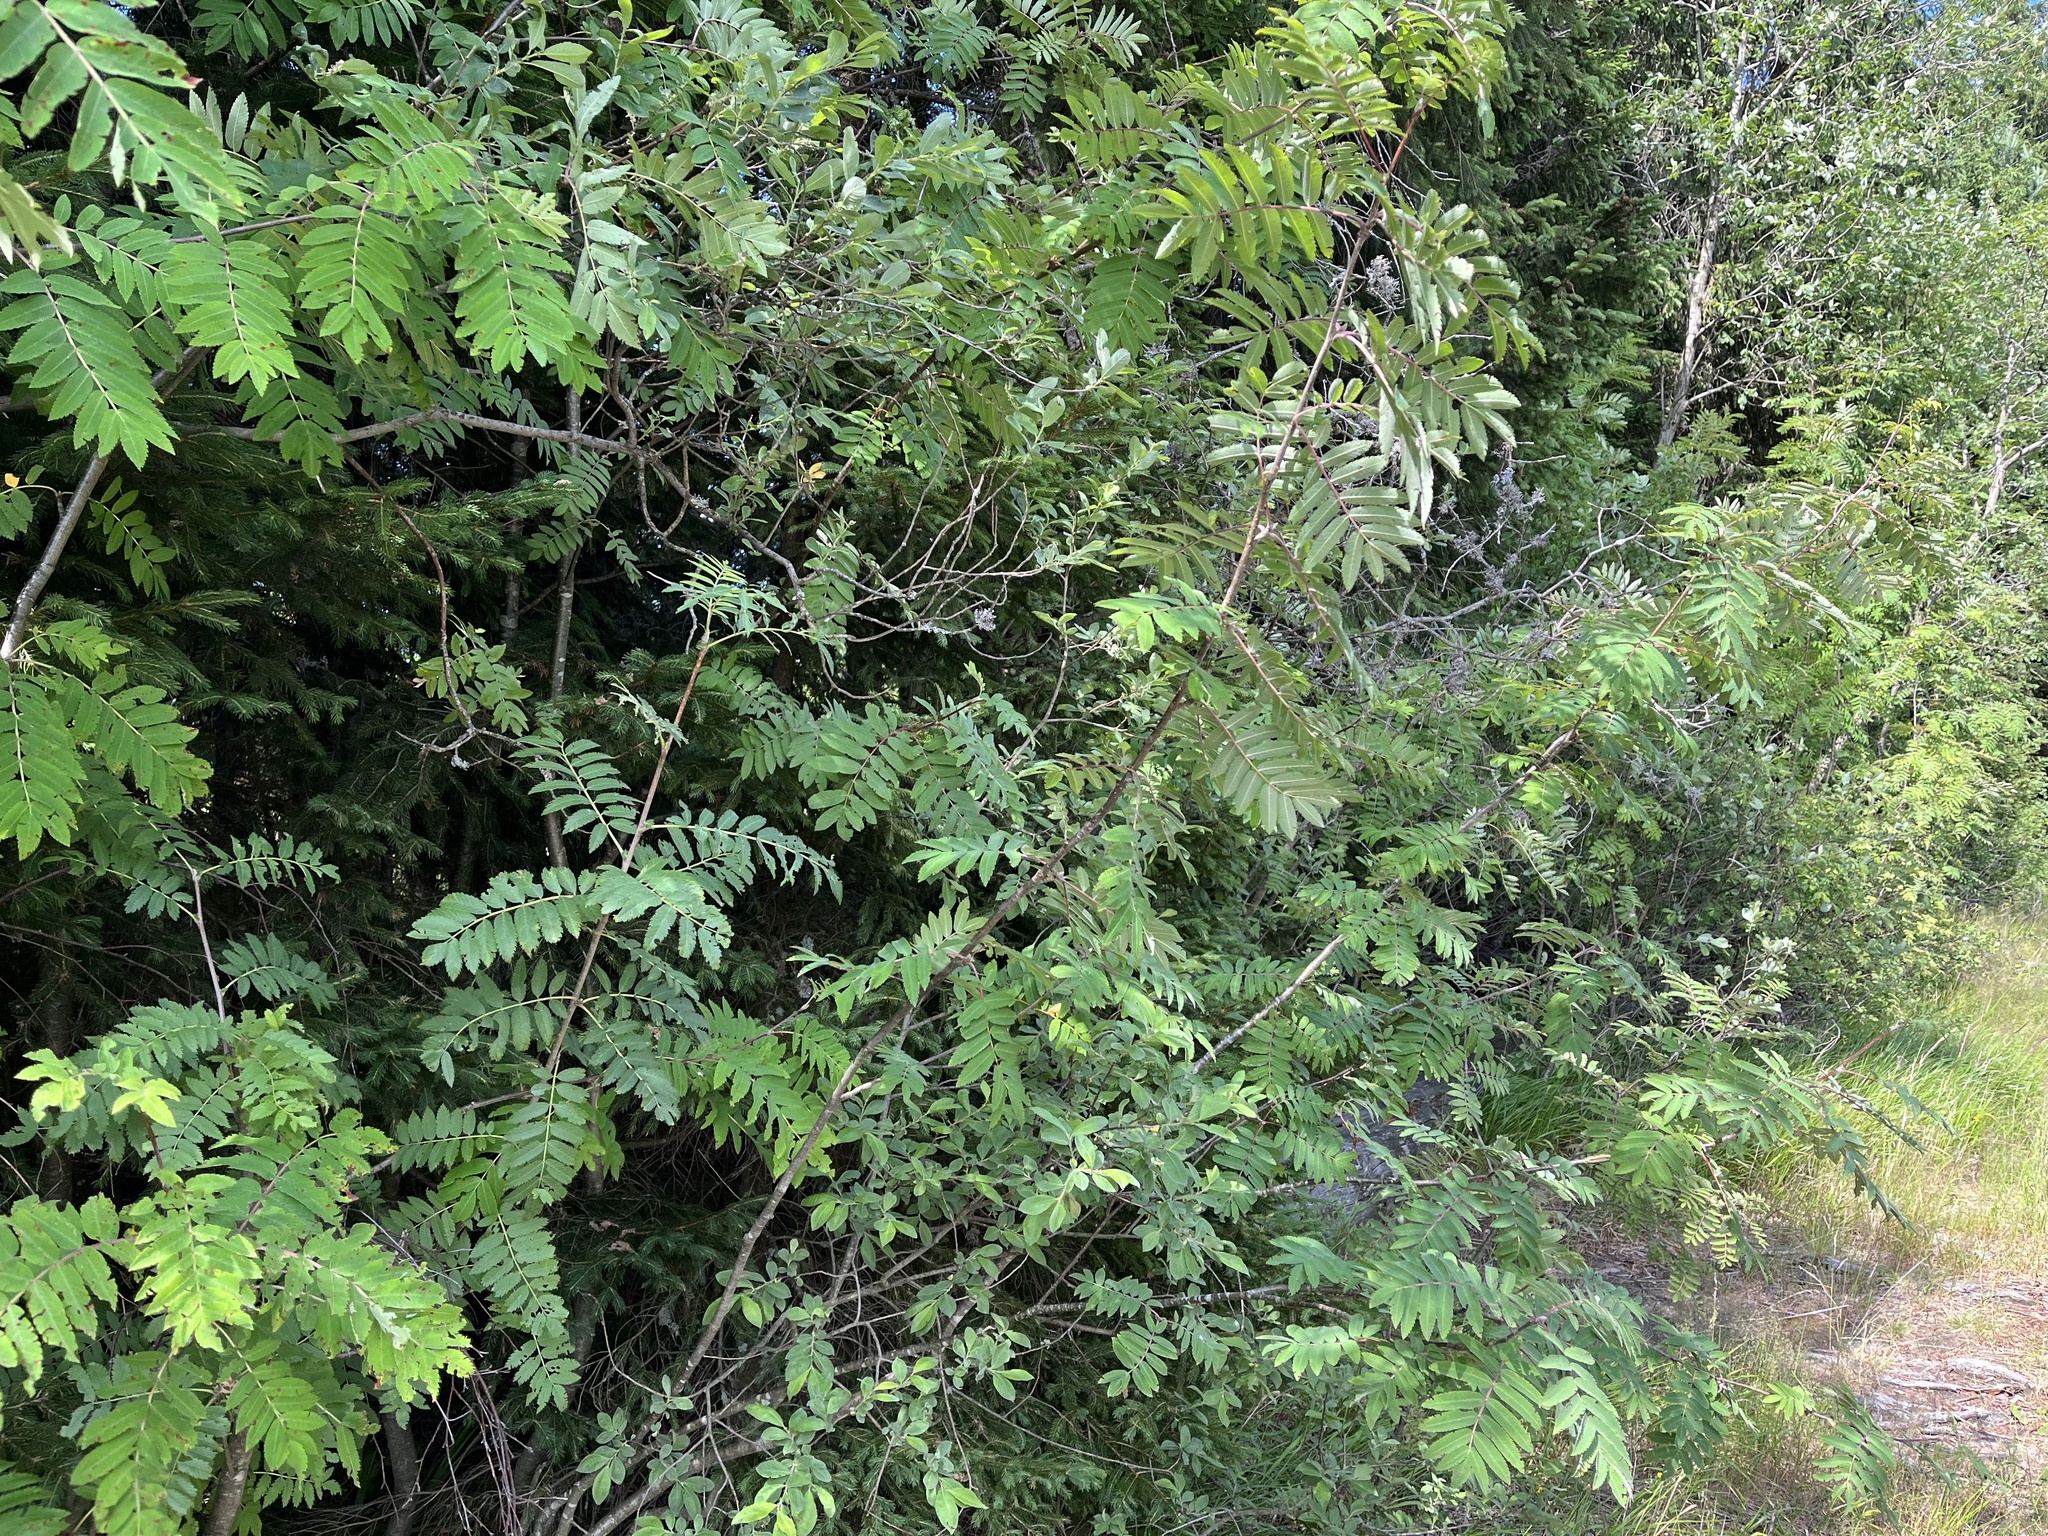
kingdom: Plantae
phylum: Tracheophyta
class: Magnoliopsida
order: Rosales
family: Rosaceae
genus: Sorbus
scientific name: Sorbus aucuparia
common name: Rowan
